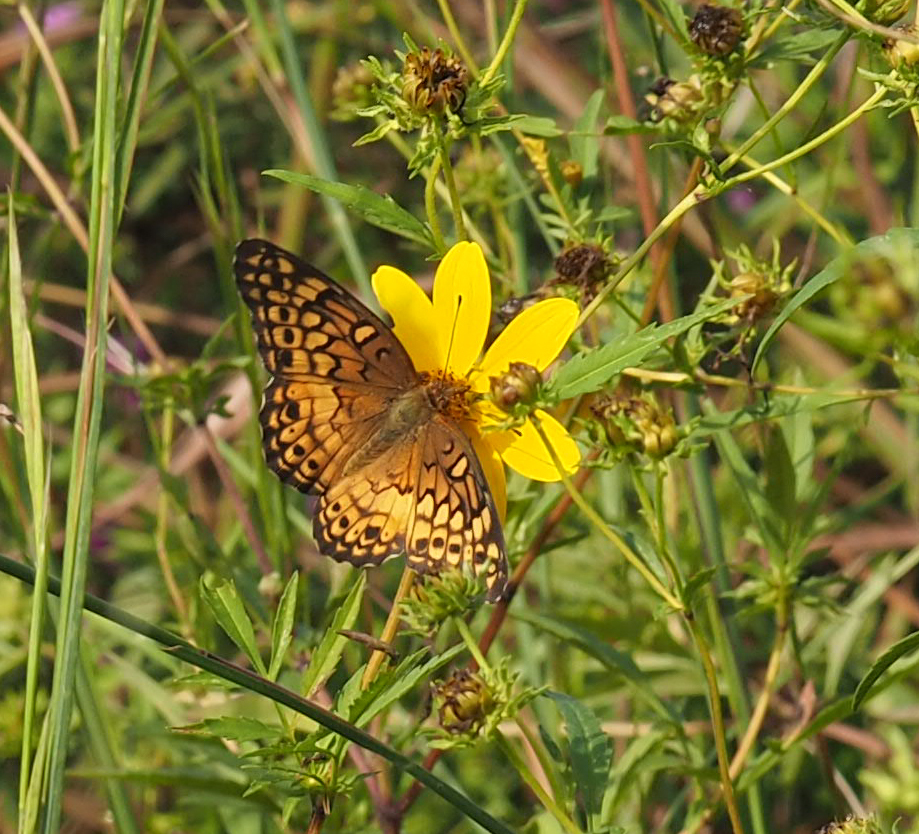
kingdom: Animalia
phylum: Arthropoda
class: Insecta
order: Lepidoptera
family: Nymphalidae
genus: Euptoieta
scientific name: Euptoieta claudia
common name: Variegated fritillary
